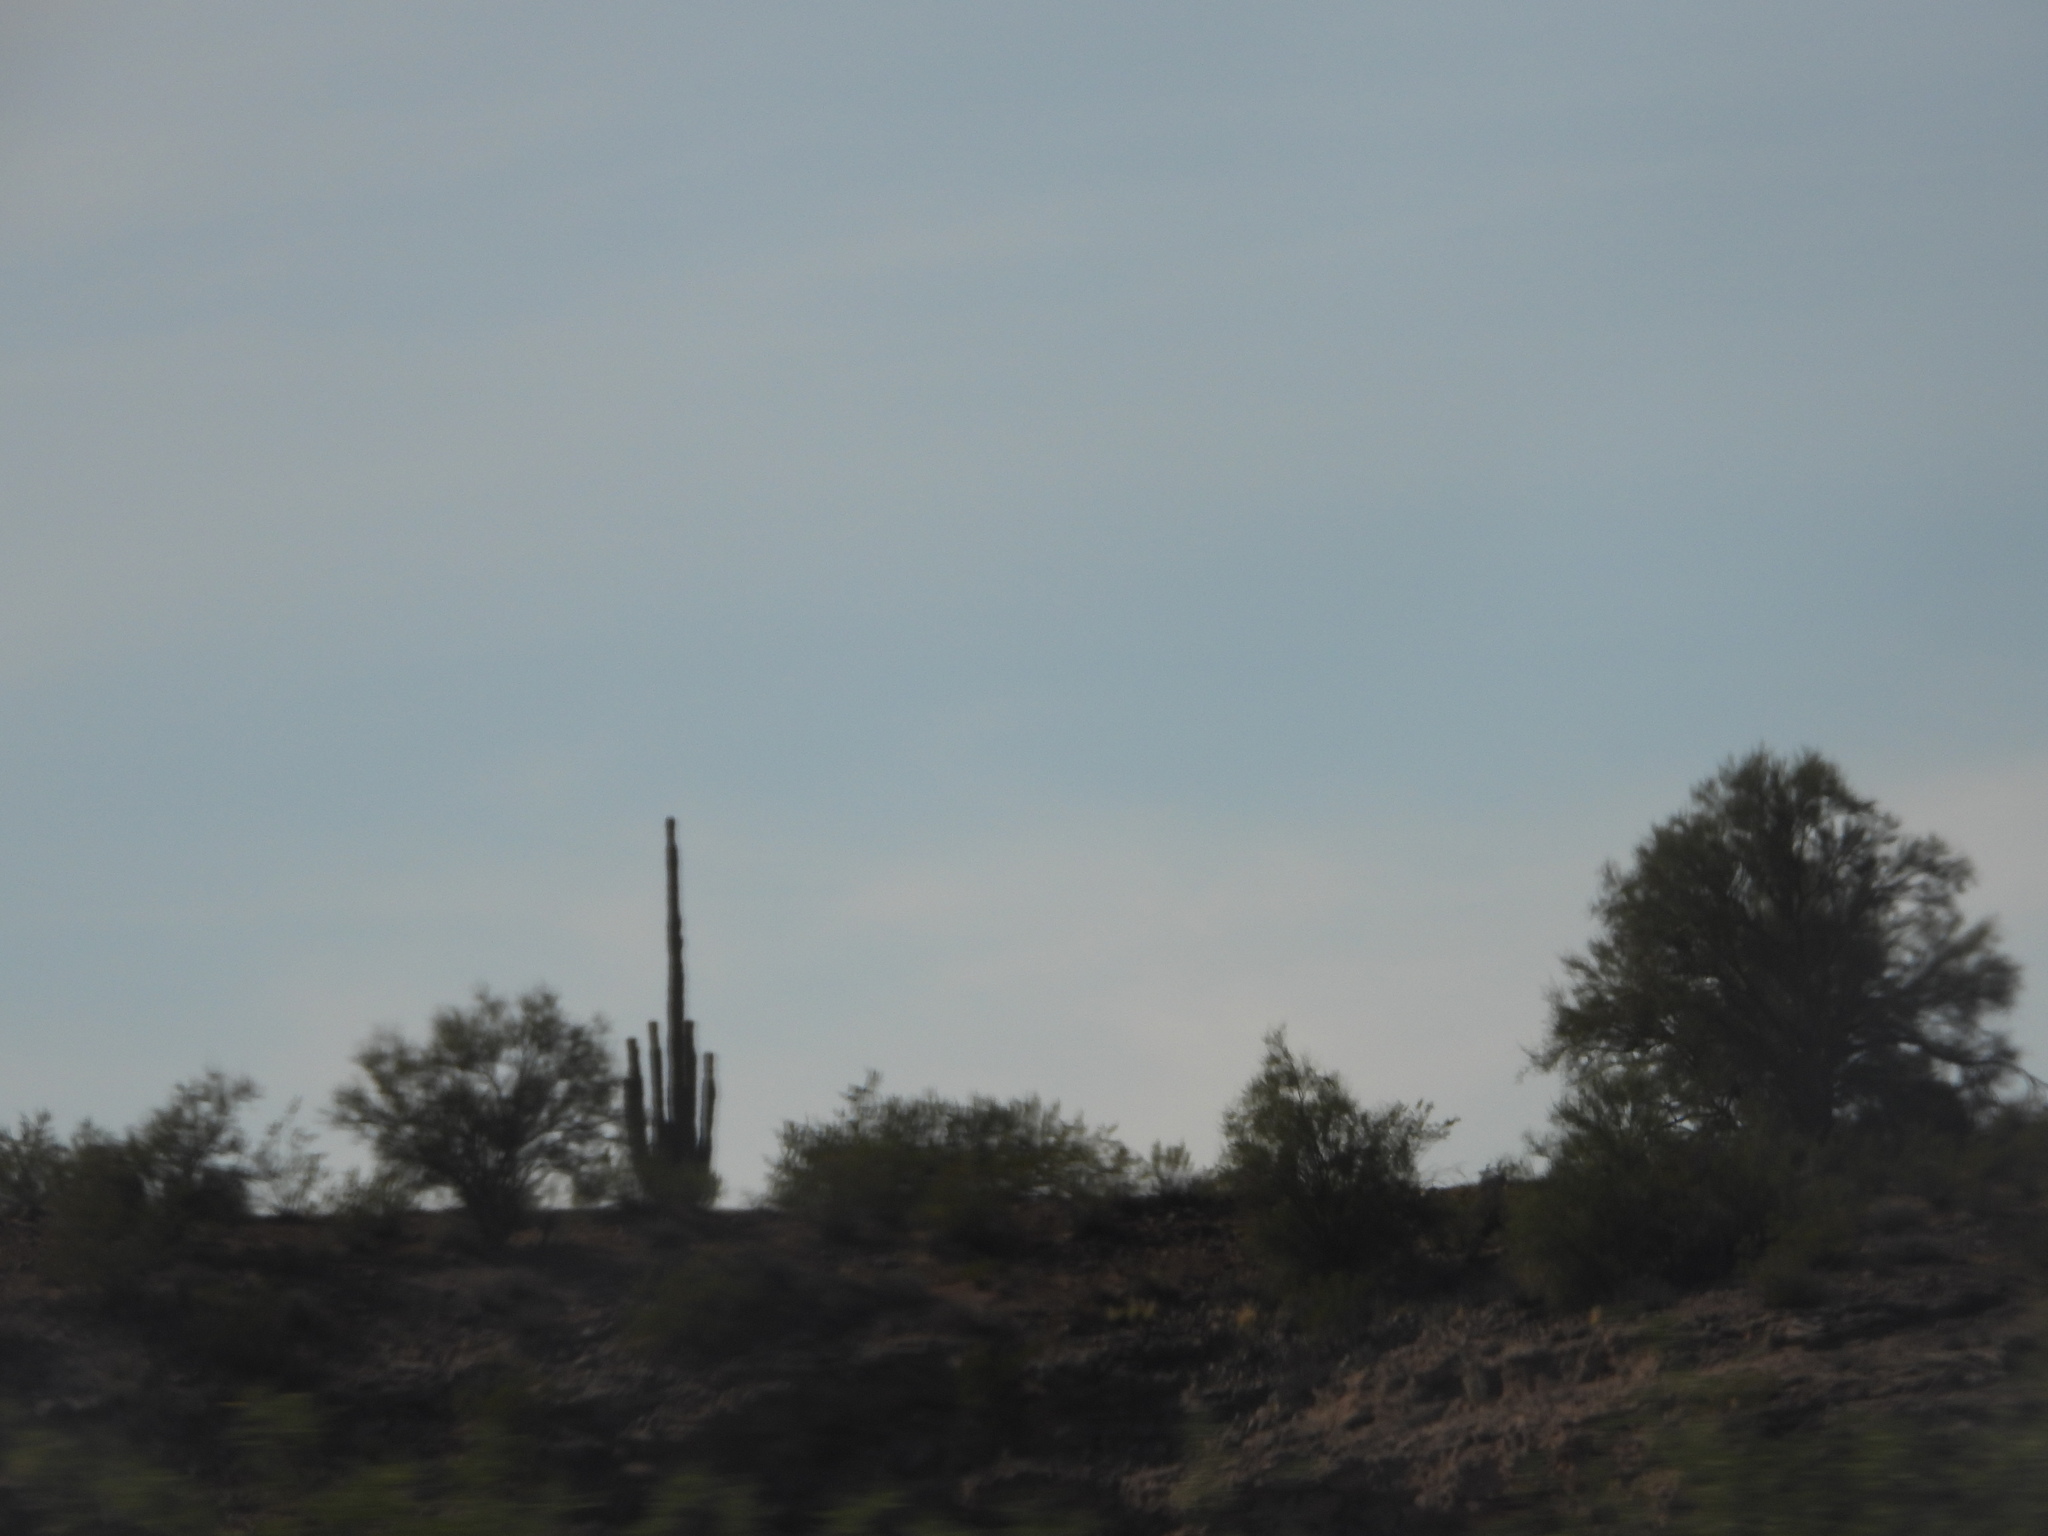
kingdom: Plantae
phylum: Tracheophyta
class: Magnoliopsida
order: Caryophyllales
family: Cactaceae
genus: Carnegiea
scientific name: Carnegiea gigantea
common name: Saguaro
